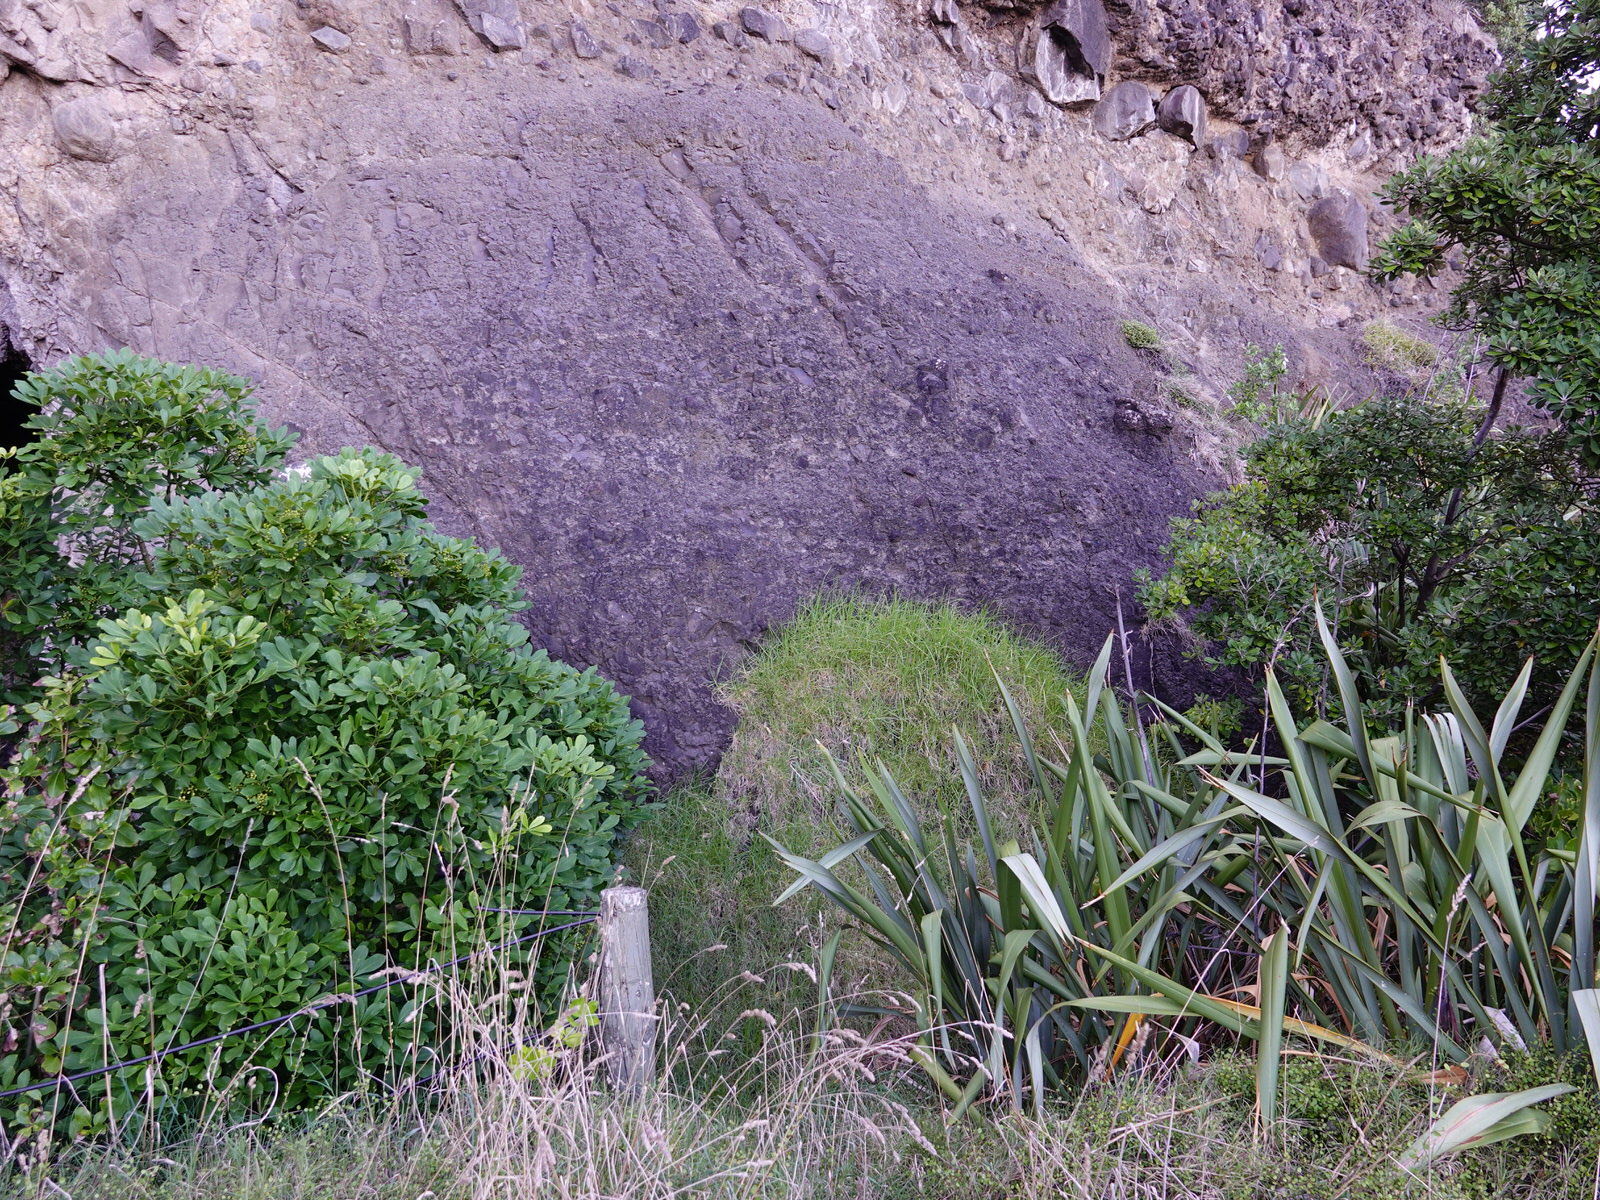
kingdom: Plantae
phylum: Tracheophyta
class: Liliopsida
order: Poales
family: Poaceae
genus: Cenchrus
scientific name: Cenchrus clandestinus
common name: Kikuyugrass
